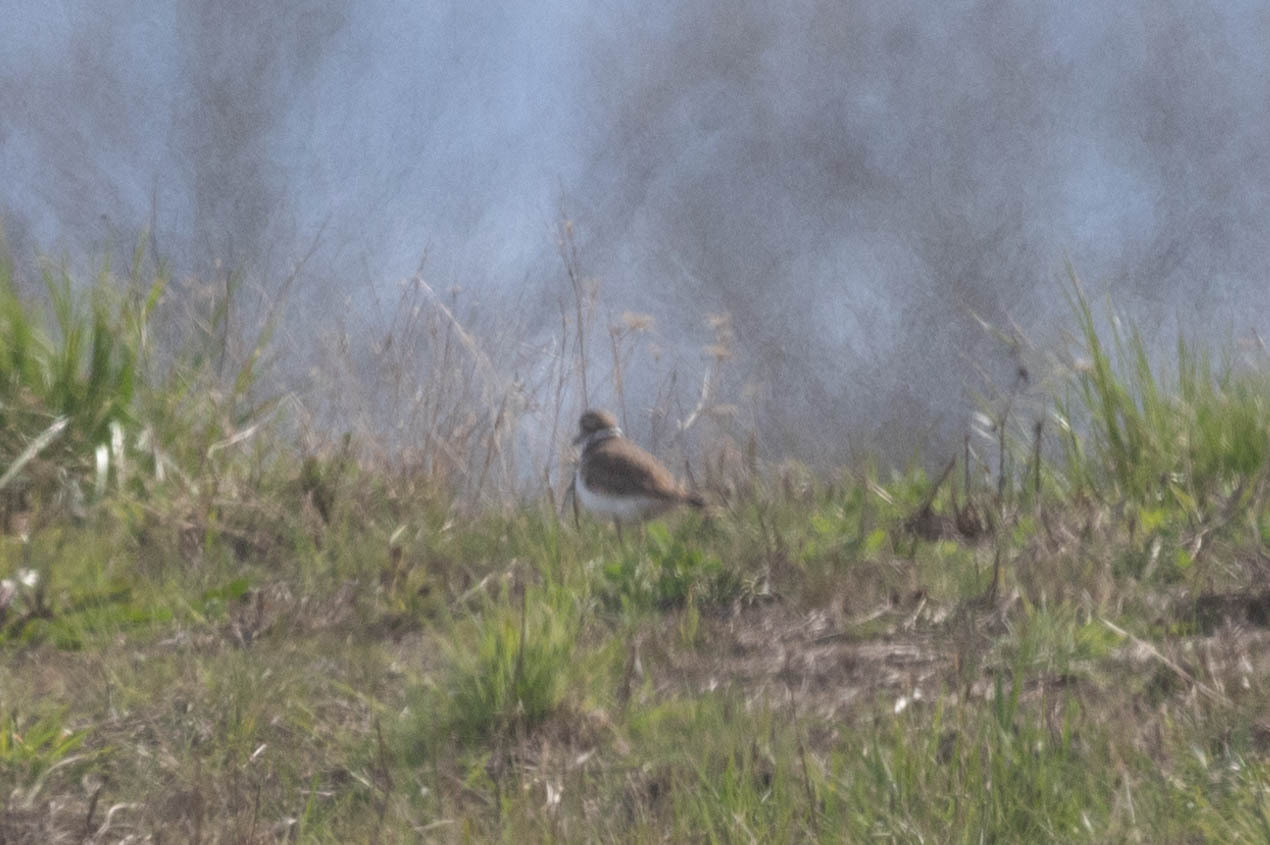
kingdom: Animalia
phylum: Chordata
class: Aves
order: Charadriiformes
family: Charadriidae
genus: Charadrius
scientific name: Charadrius vociferus
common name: Killdeer
